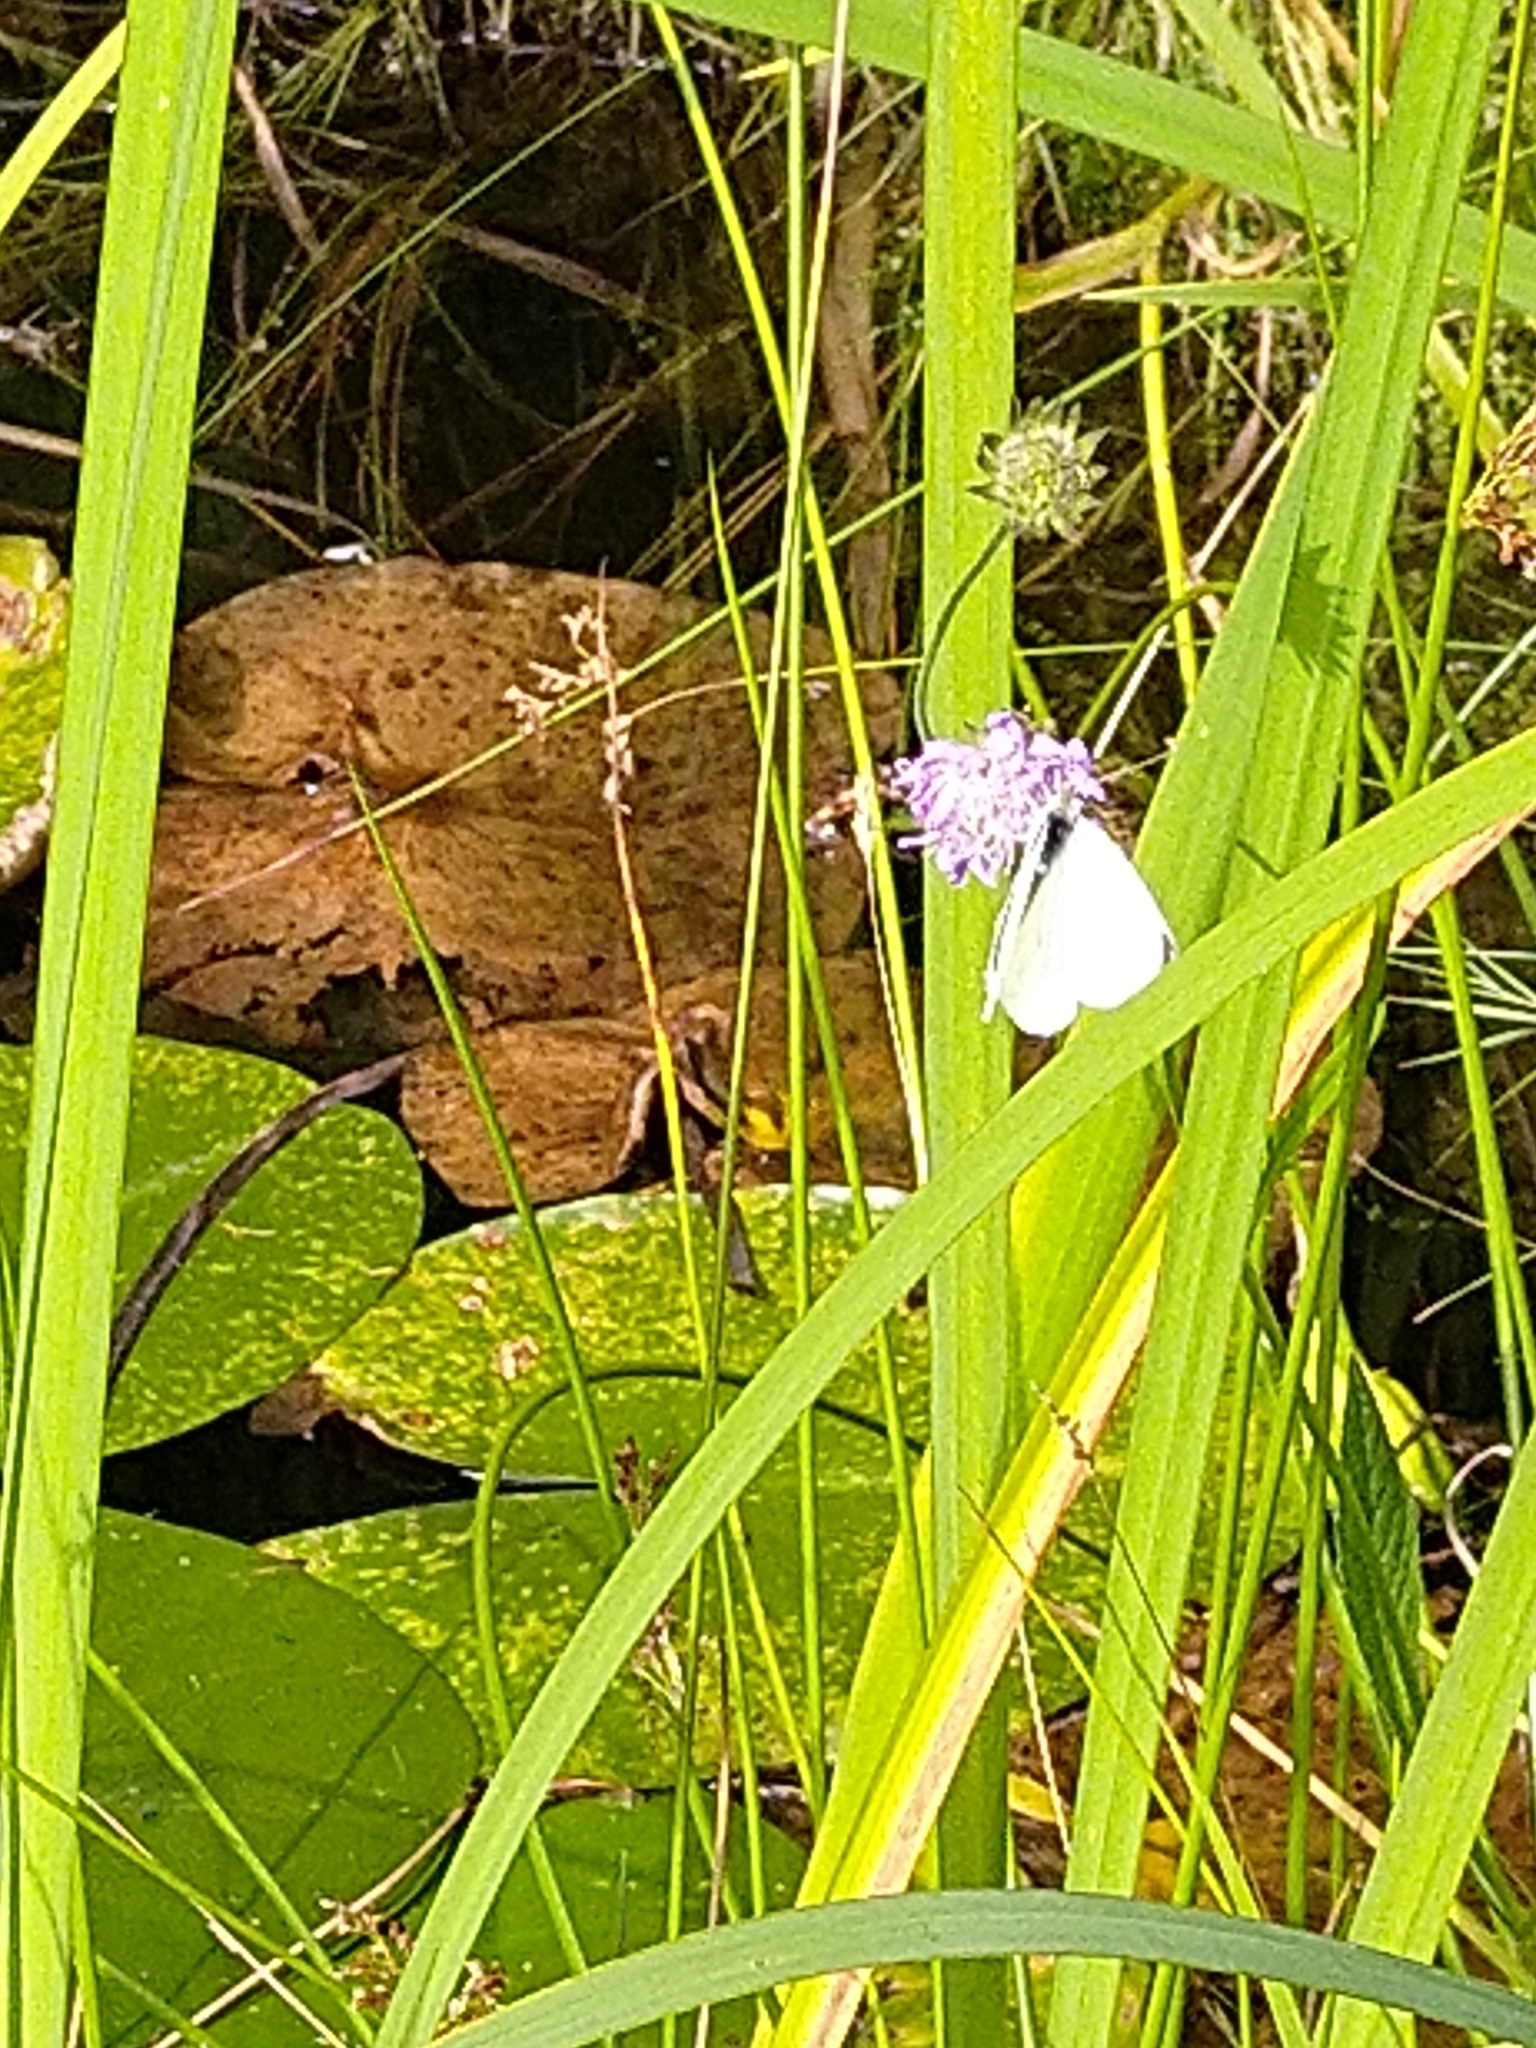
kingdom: Animalia
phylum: Arthropoda
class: Insecta
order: Lepidoptera
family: Pieridae
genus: Pieris
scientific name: Pieris brassicae
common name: Large white
